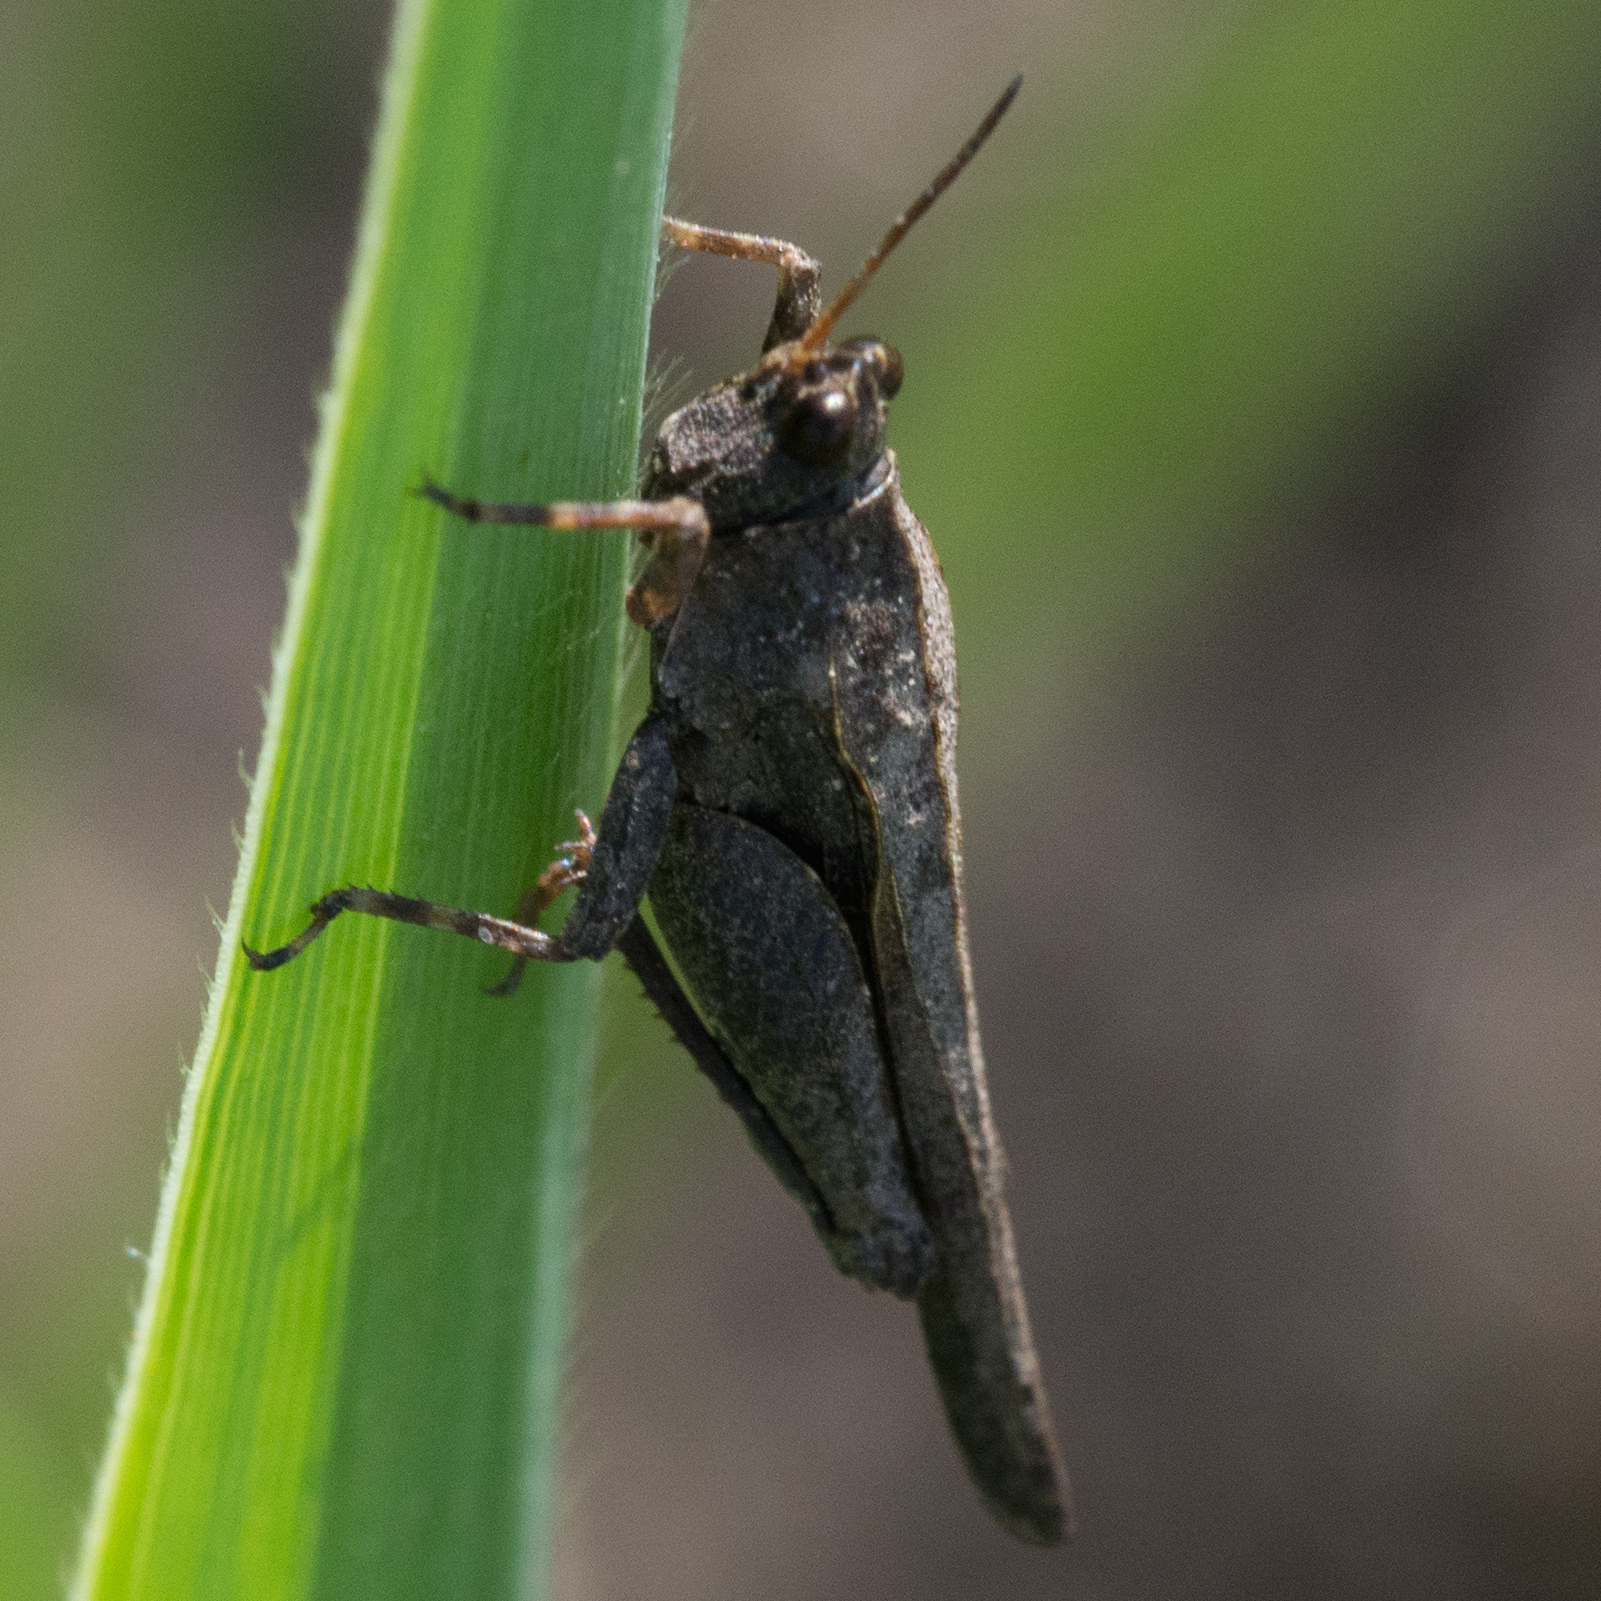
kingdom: Animalia
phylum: Arthropoda
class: Insecta
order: Orthoptera
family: Tetrigidae
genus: Tetrix
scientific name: Tetrix subulata
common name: Slender ground-hopper
